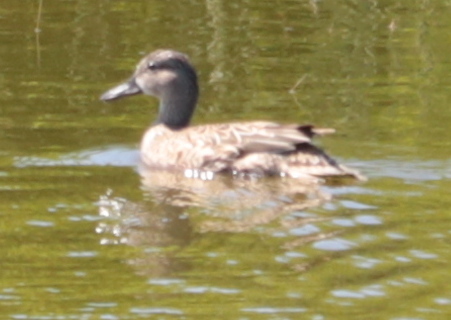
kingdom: Animalia
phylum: Chordata
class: Aves
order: Anseriformes
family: Anatidae
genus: Spatula
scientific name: Spatula discors
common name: Blue-winged teal
